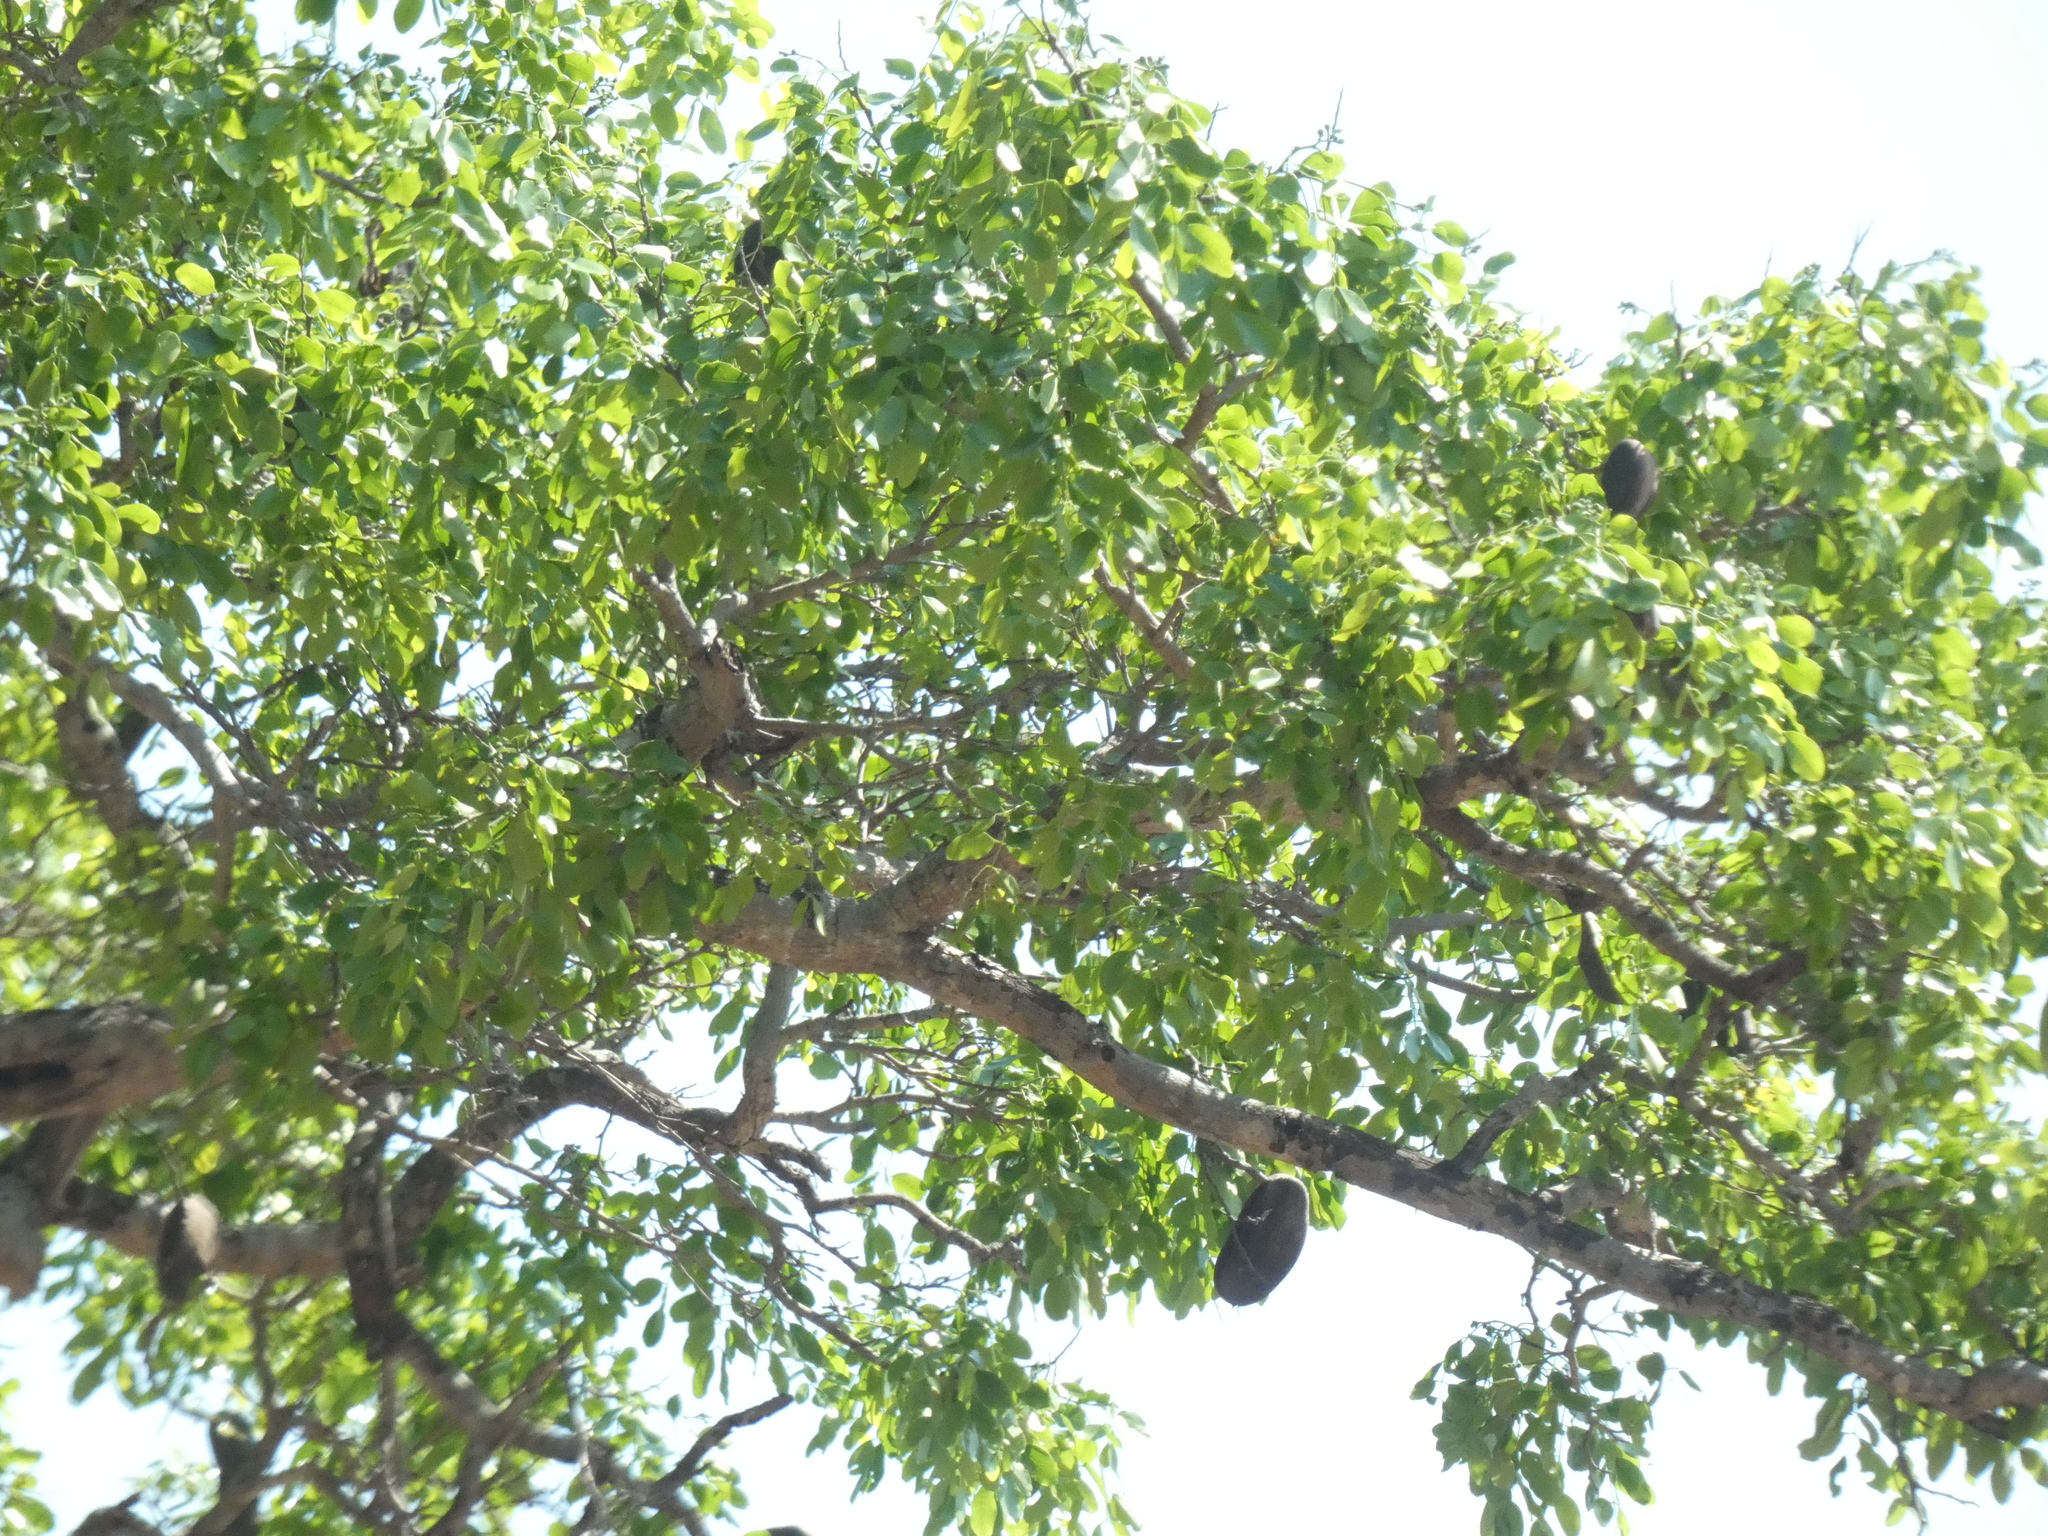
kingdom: Plantae
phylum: Tracheophyta
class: Magnoliopsida
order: Fabales
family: Fabaceae
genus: Afzelia
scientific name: Afzelia quanzensis
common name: Pod mahogany
